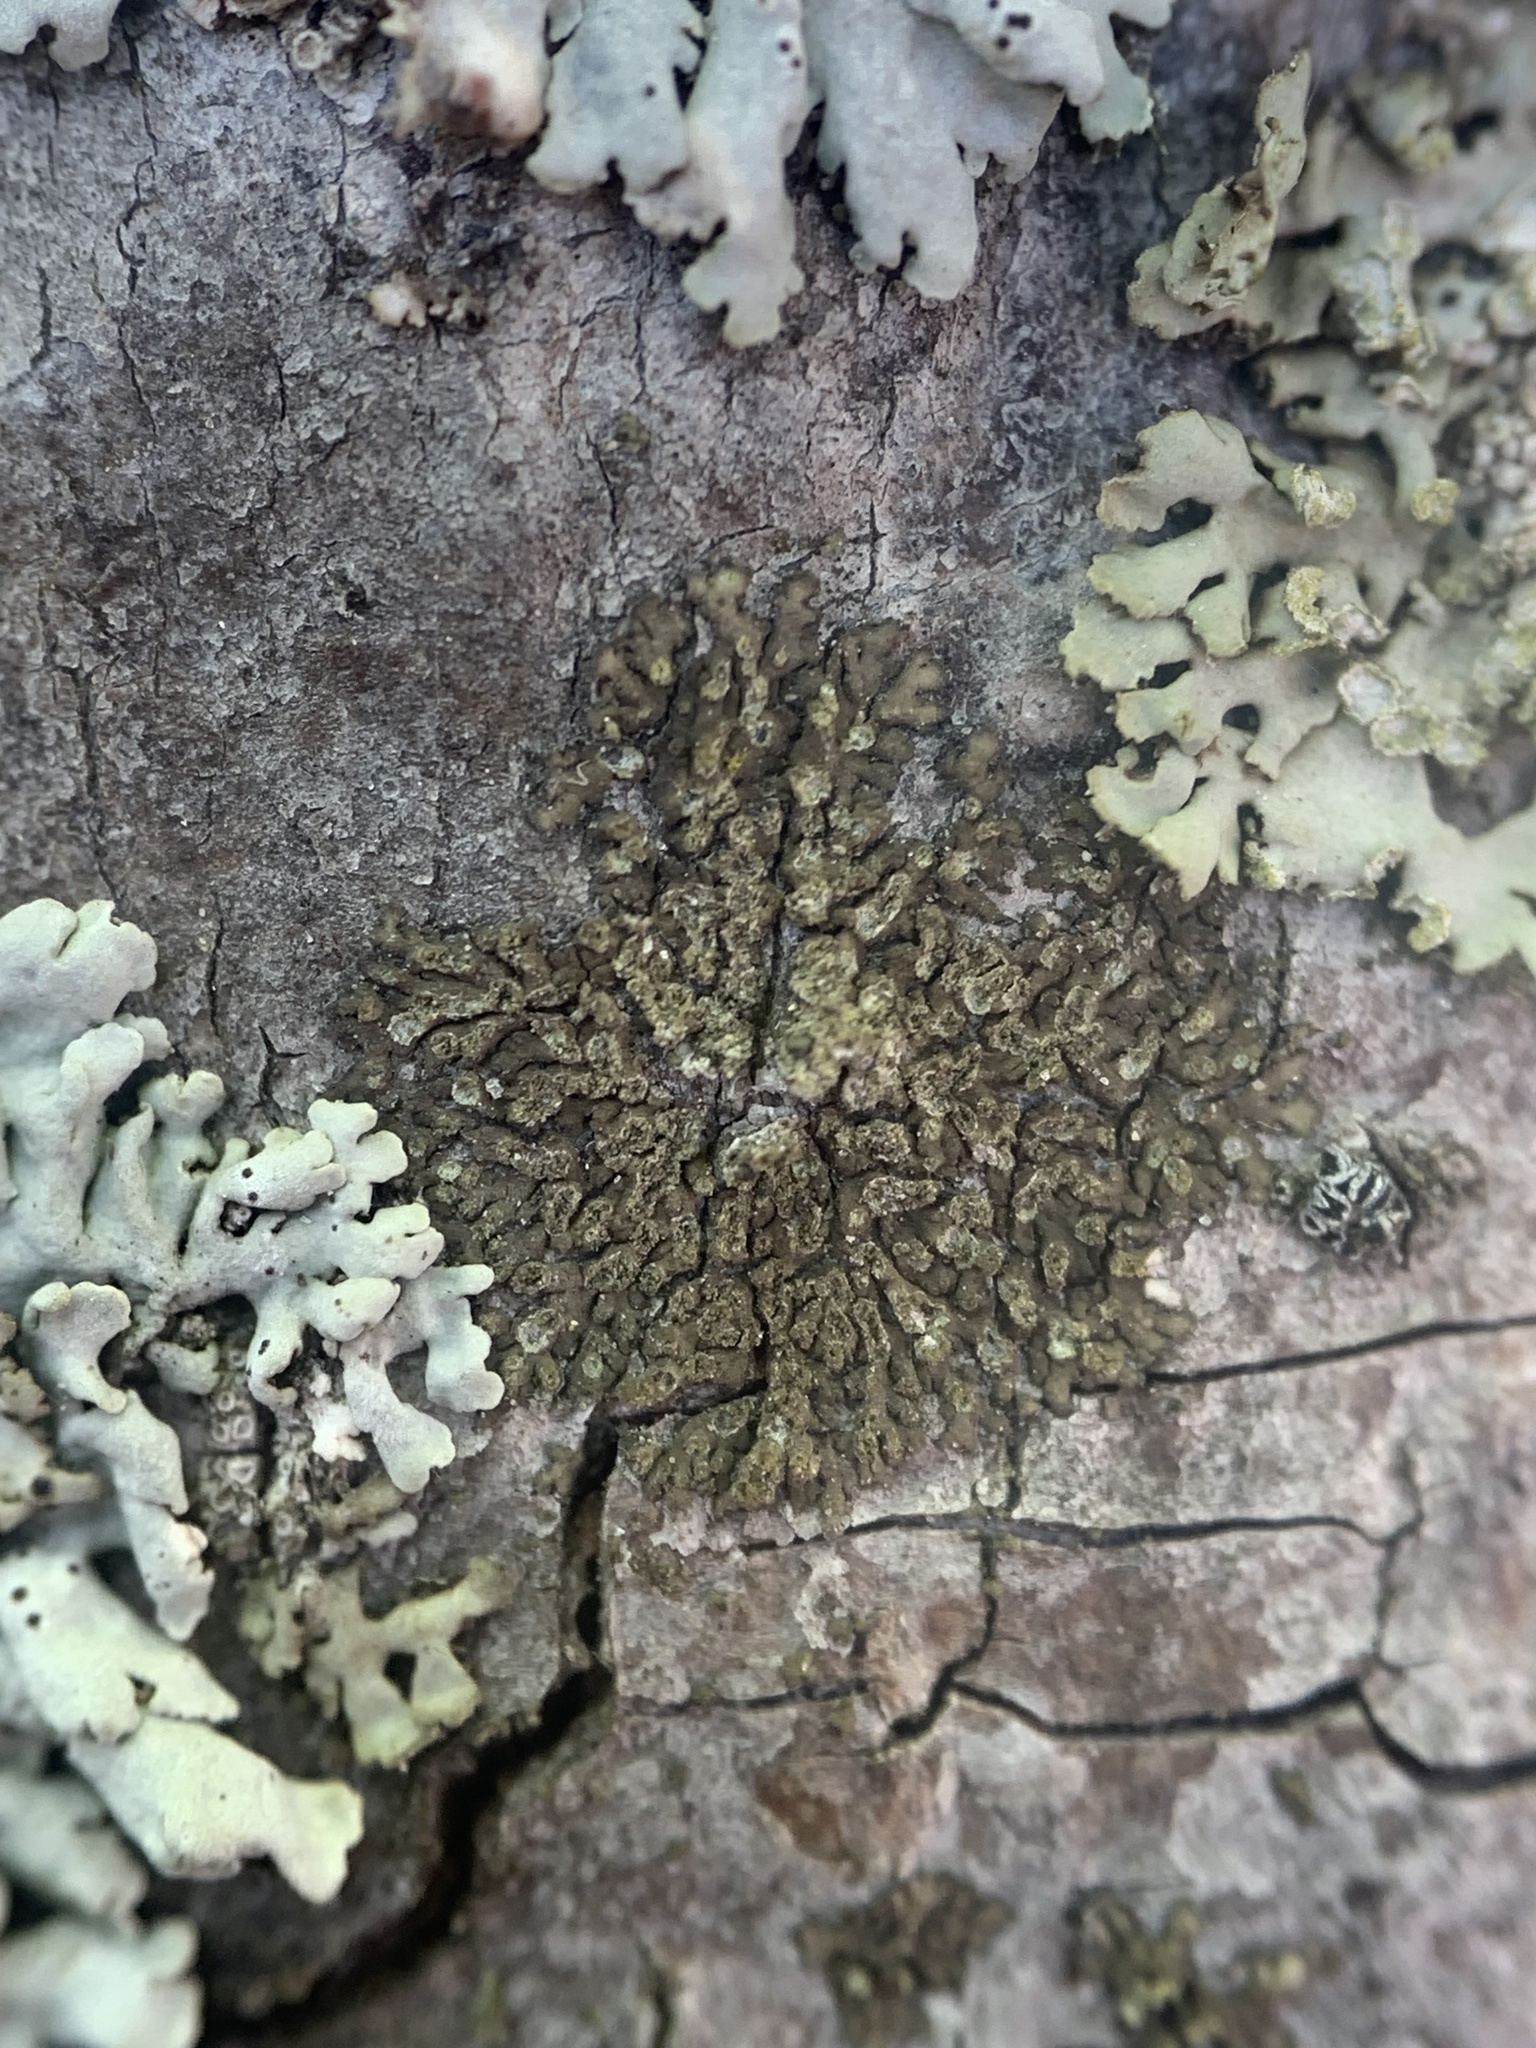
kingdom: Fungi
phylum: Ascomycota
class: Lecanoromycetes
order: Caliciales
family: Physciaceae
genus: Hyperphyscia
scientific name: Hyperphyscia adglutinata
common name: Grainy shadow-crust lichen
